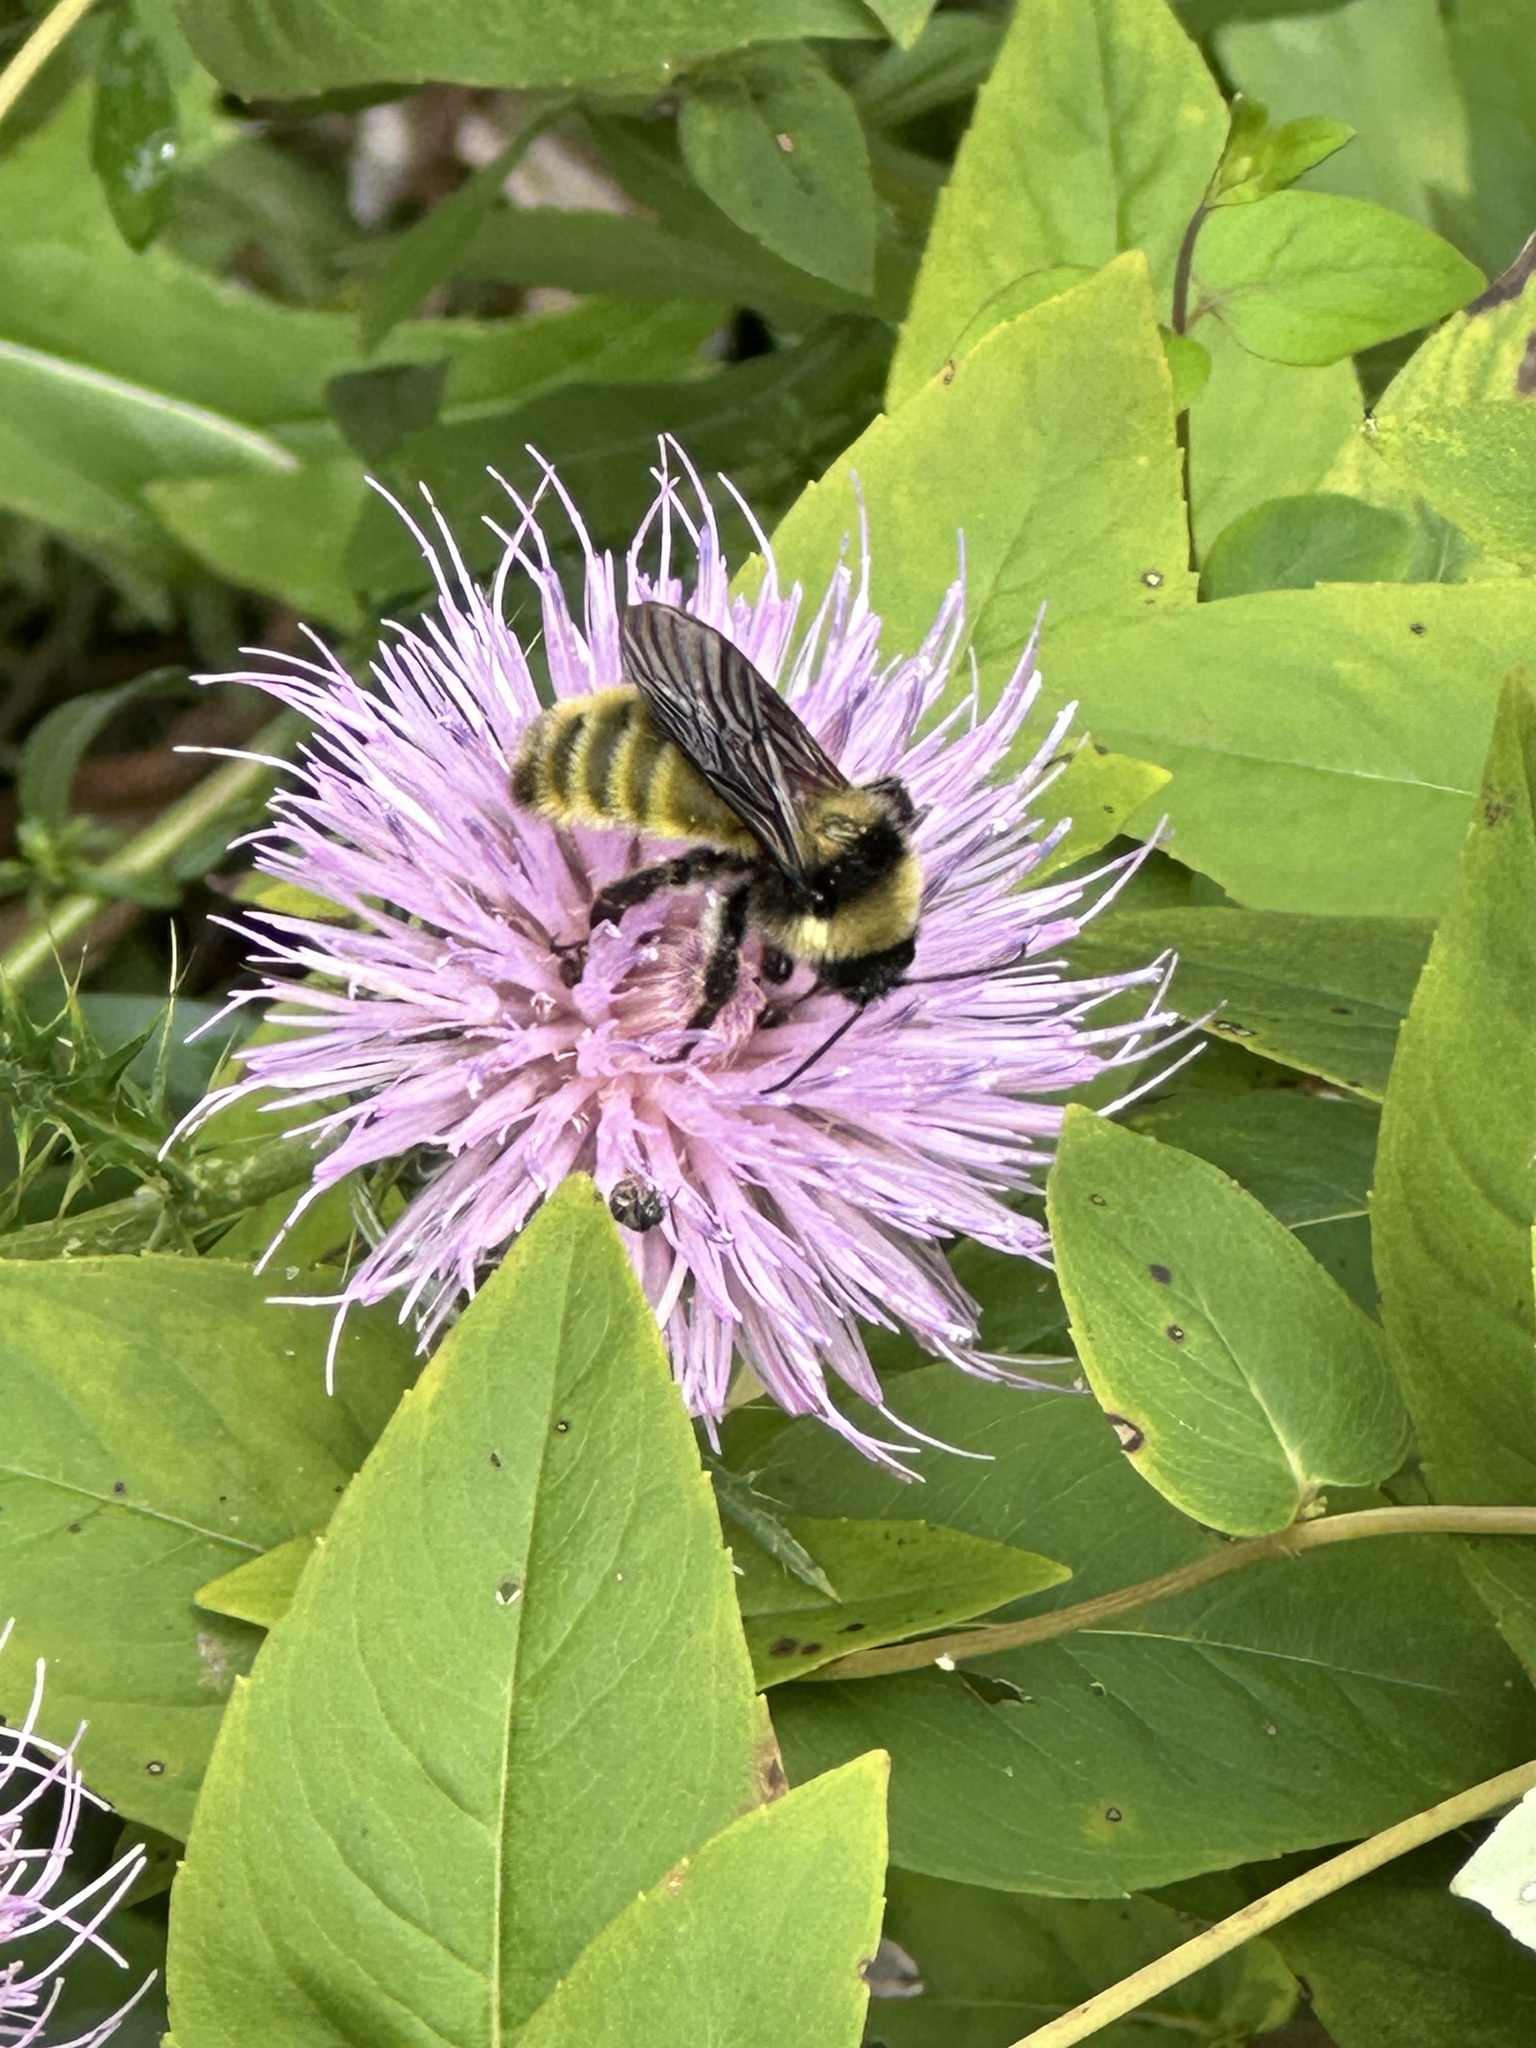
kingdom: Animalia
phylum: Arthropoda
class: Insecta
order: Hymenoptera
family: Apidae
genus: Bombus
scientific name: Bombus pensylvanicus
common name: Bumble bee
